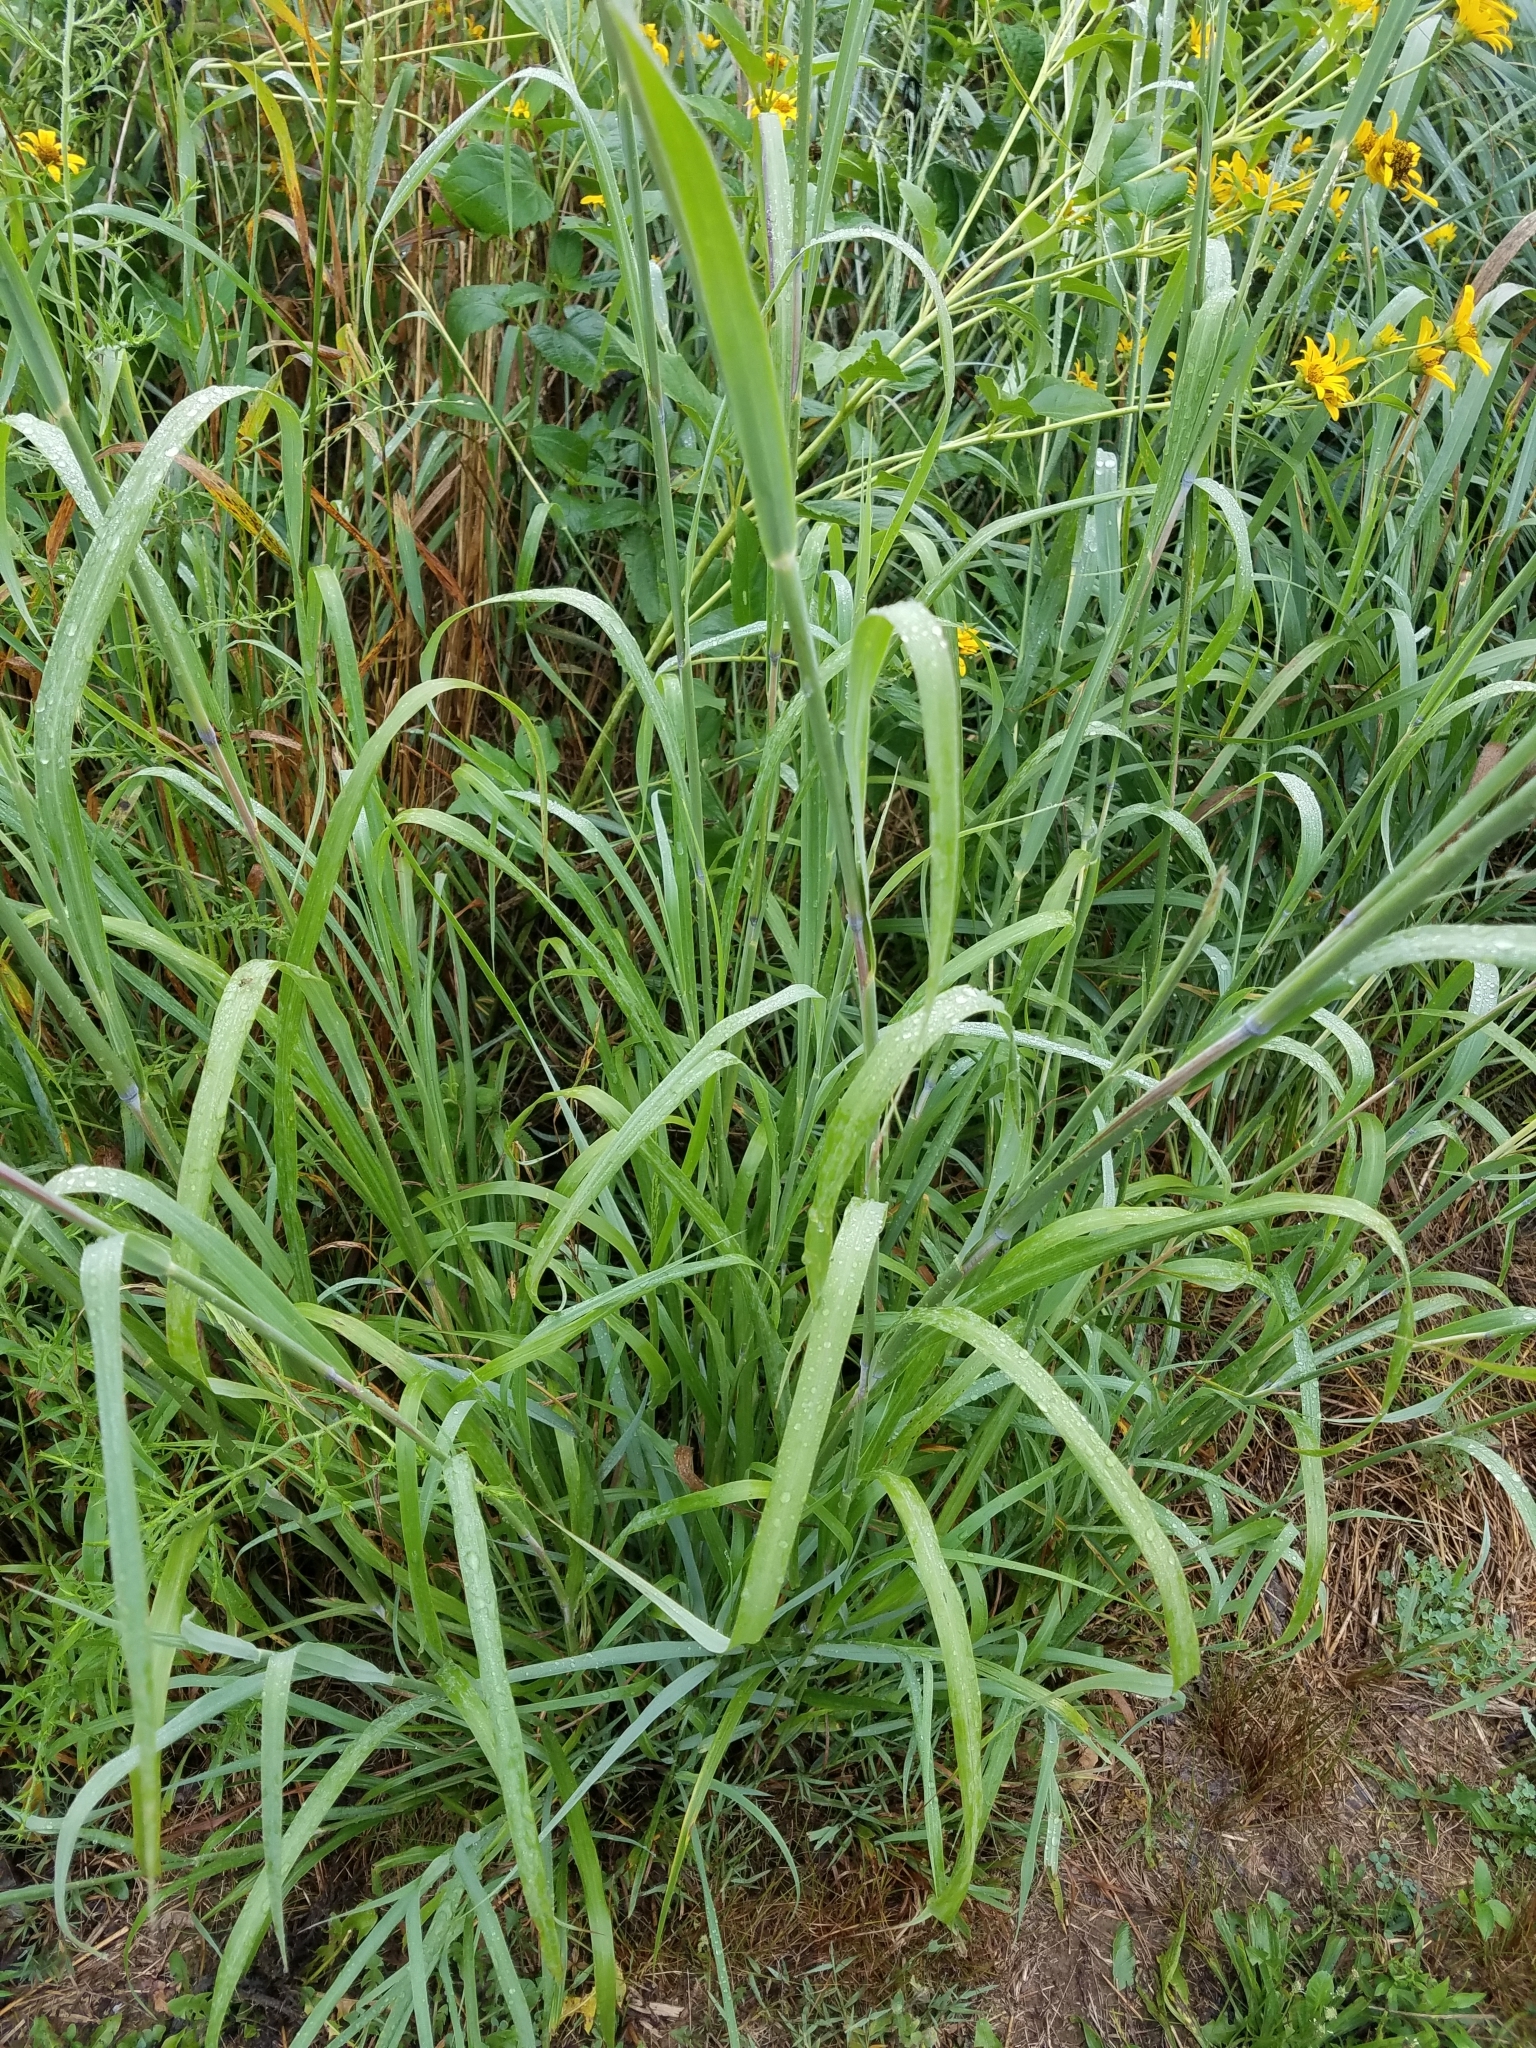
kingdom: Plantae
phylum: Tracheophyta
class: Liliopsida
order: Poales
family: Poaceae
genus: Andropogon
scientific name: Andropogon gerardi
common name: Big bluestem
